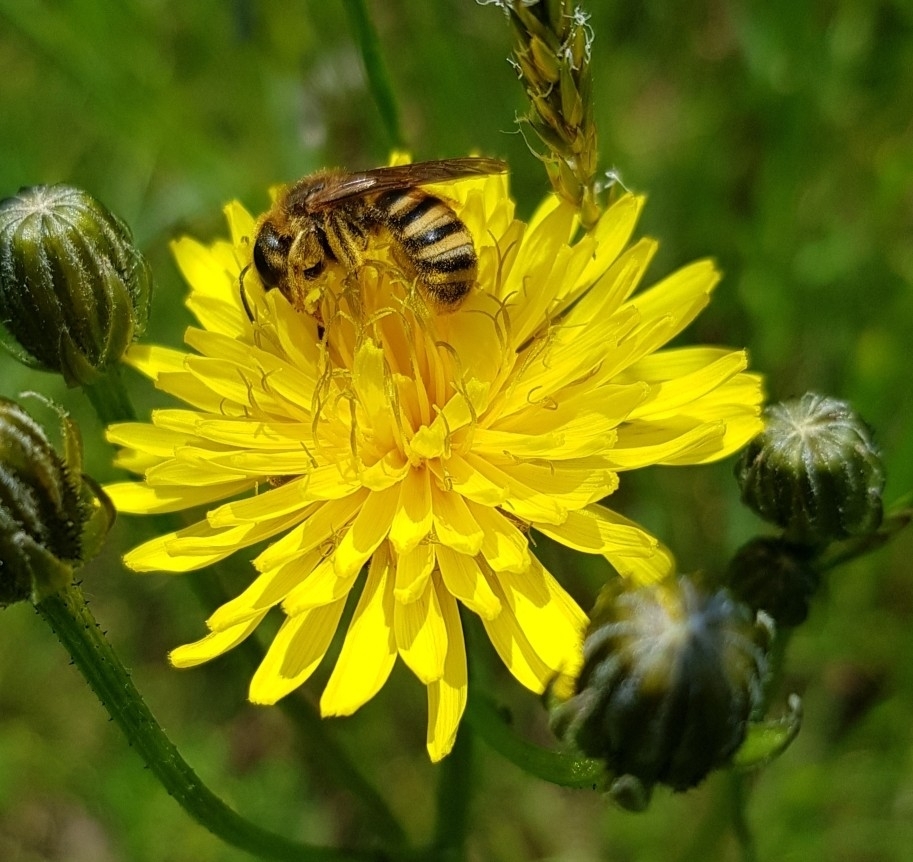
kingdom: Animalia
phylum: Arthropoda
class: Insecta
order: Hymenoptera
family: Halictidae
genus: Halictus
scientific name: Halictus scabiosae
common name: Great banded furrow bee
